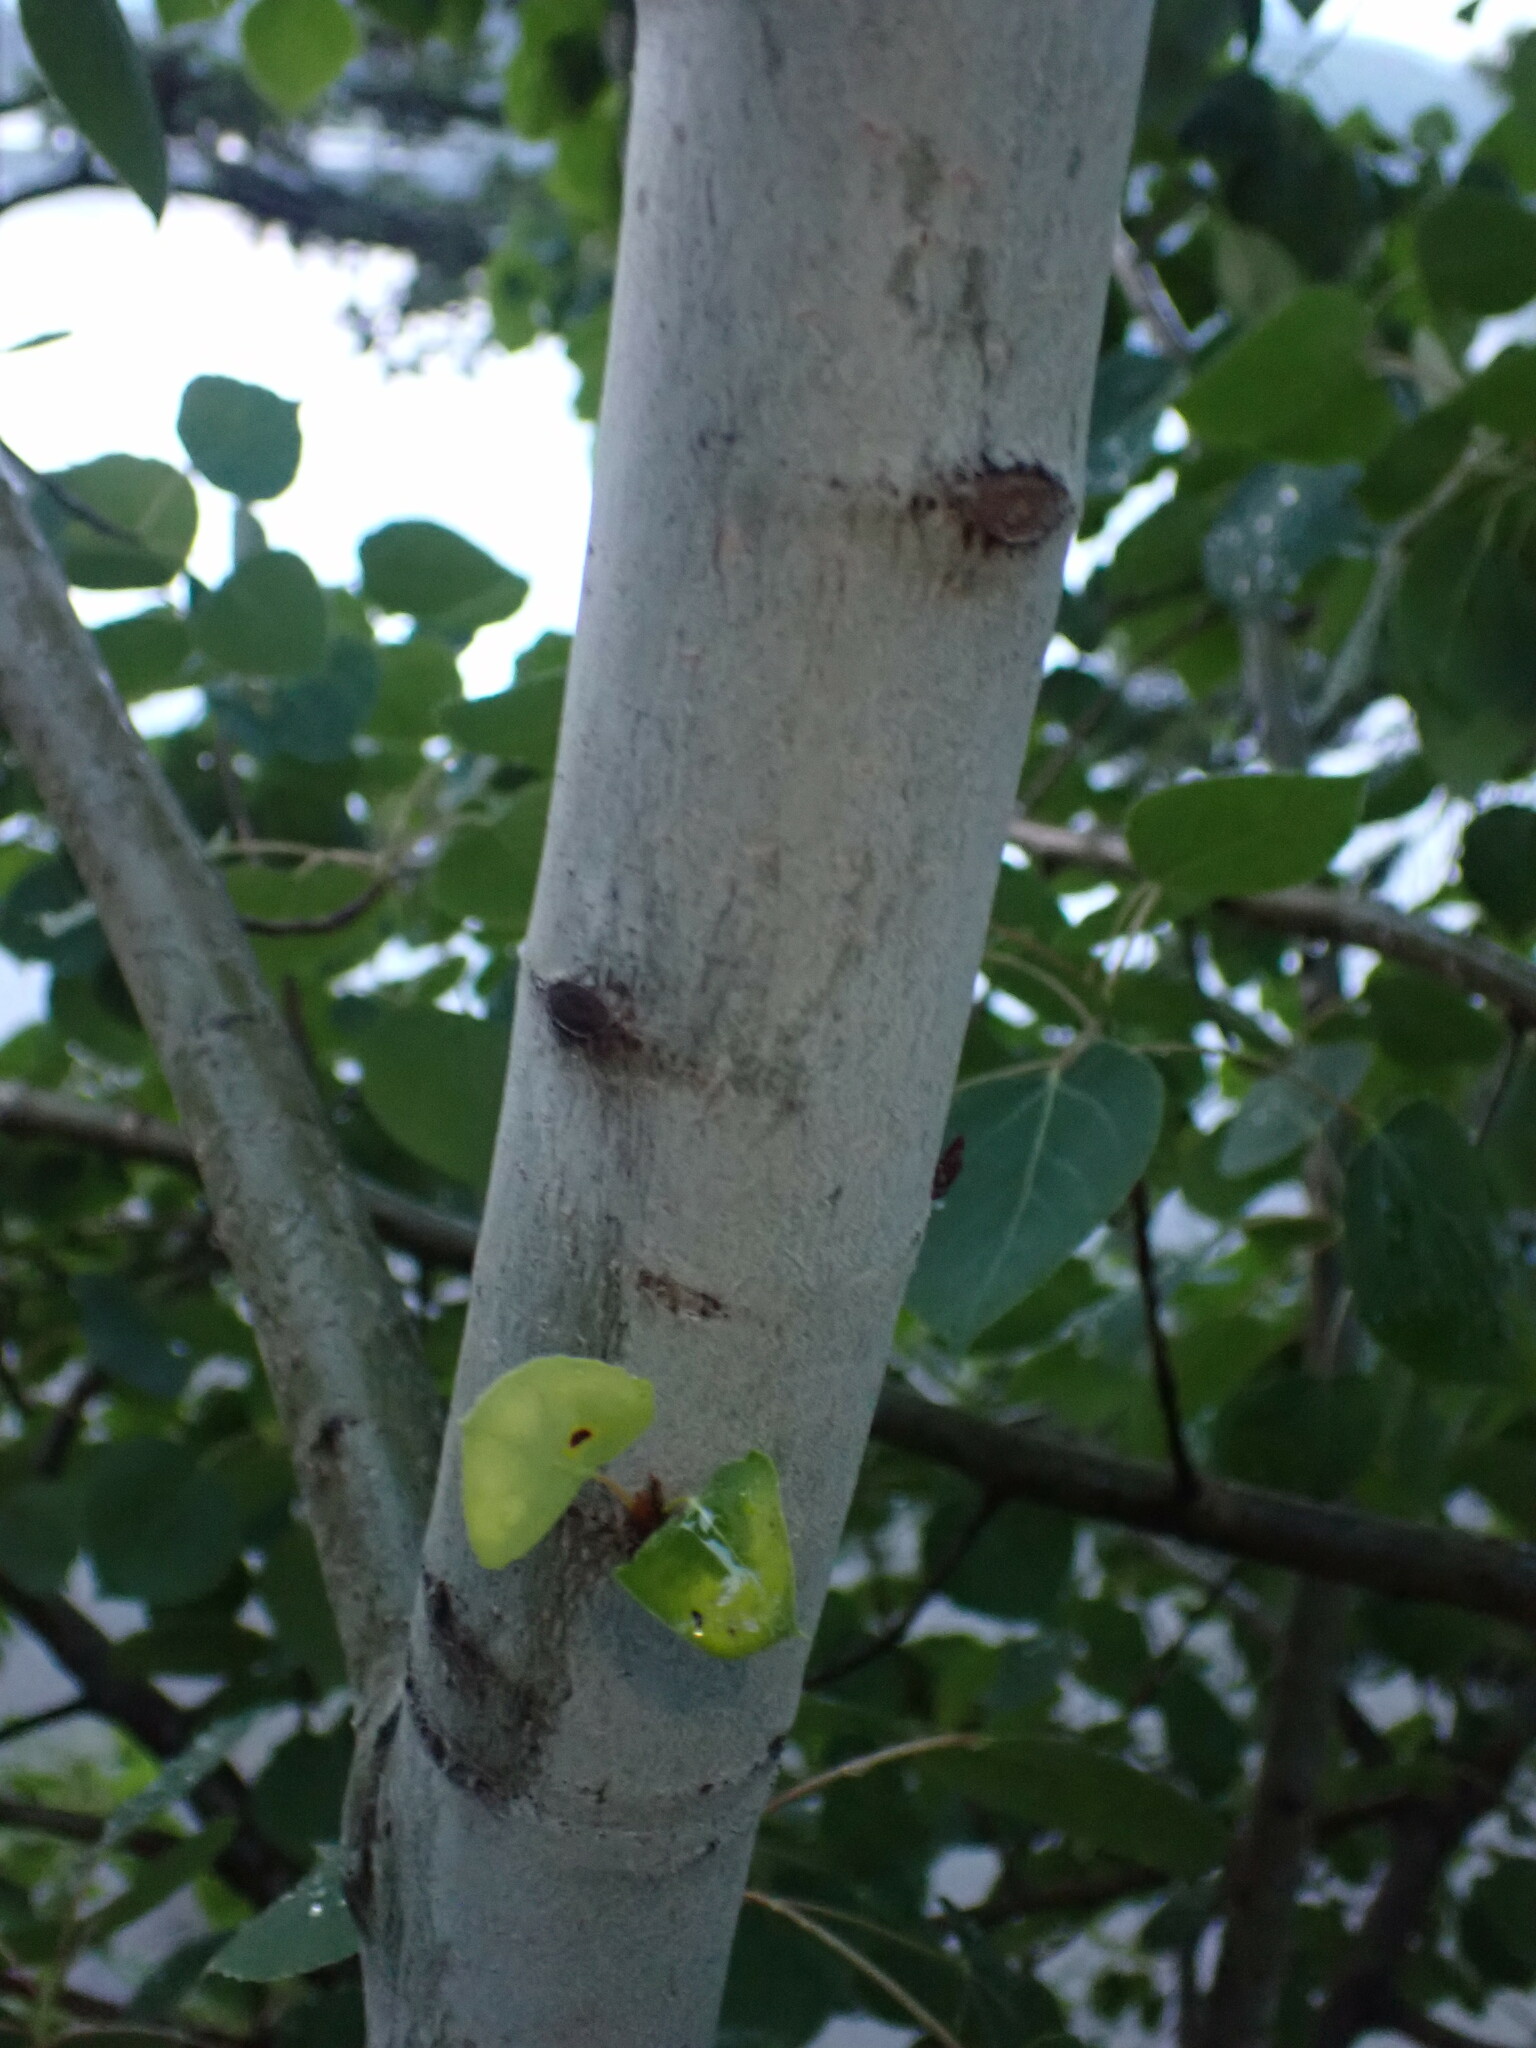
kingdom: Plantae
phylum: Tracheophyta
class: Magnoliopsida
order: Malpighiales
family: Salicaceae
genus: Populus
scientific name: Populus tremuloides
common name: Quaking aspen
